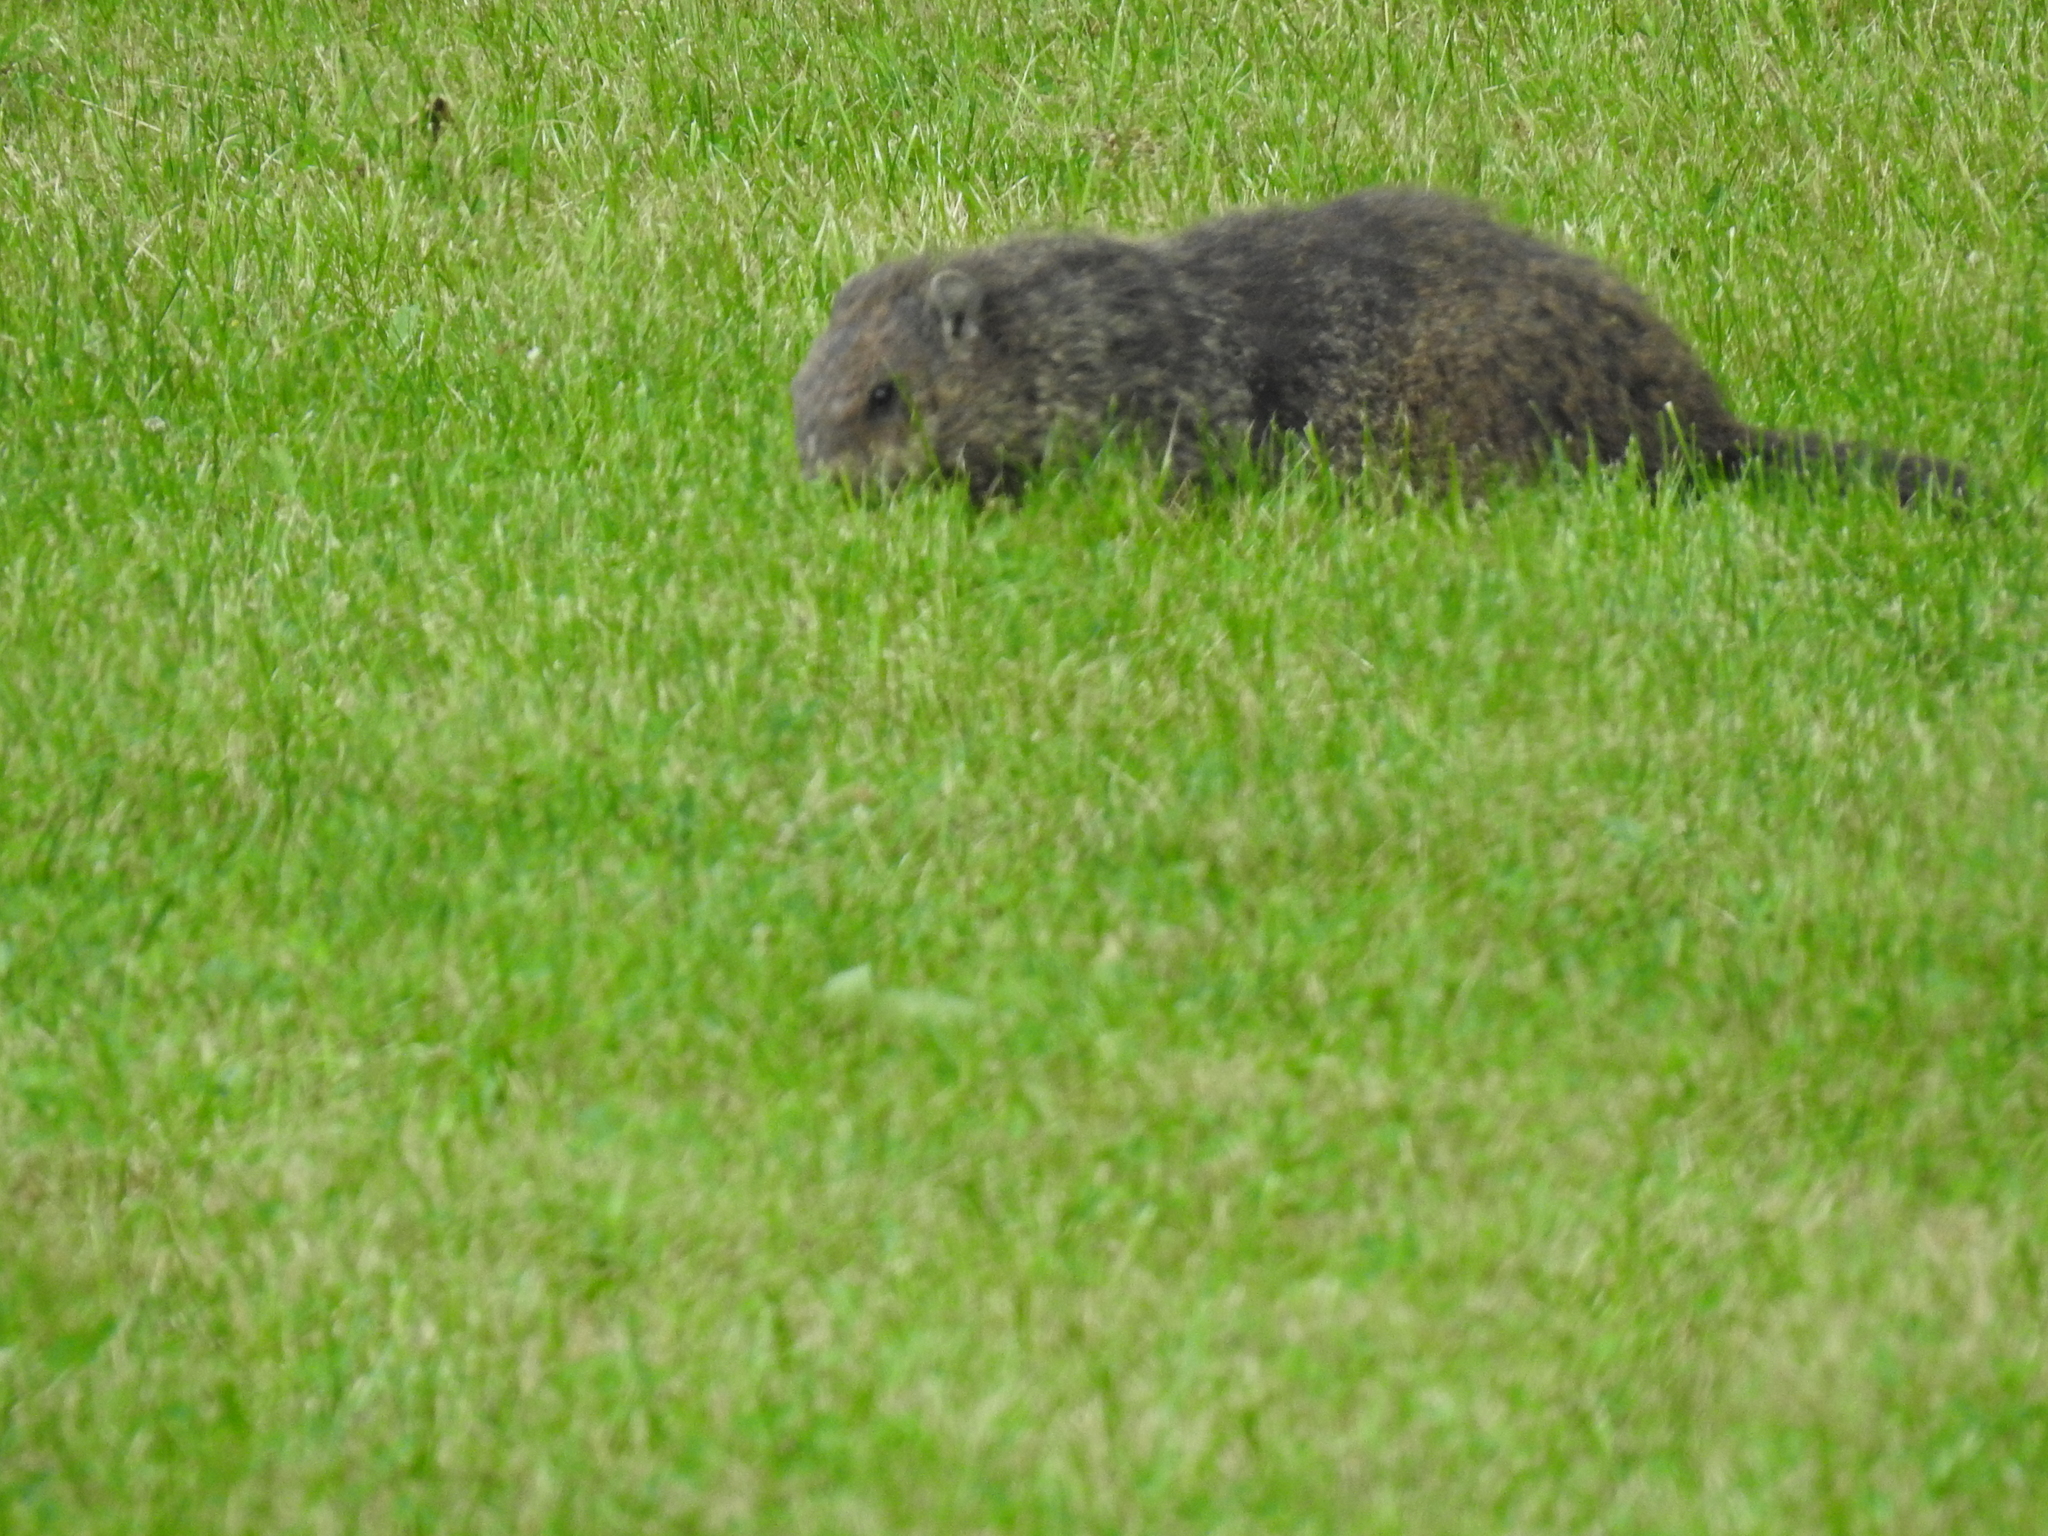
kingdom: Animalia
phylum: Chordata
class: Mammalia
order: Rodentia
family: Sciuridae
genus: Marmota
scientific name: Marmota monax
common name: Groundhog
